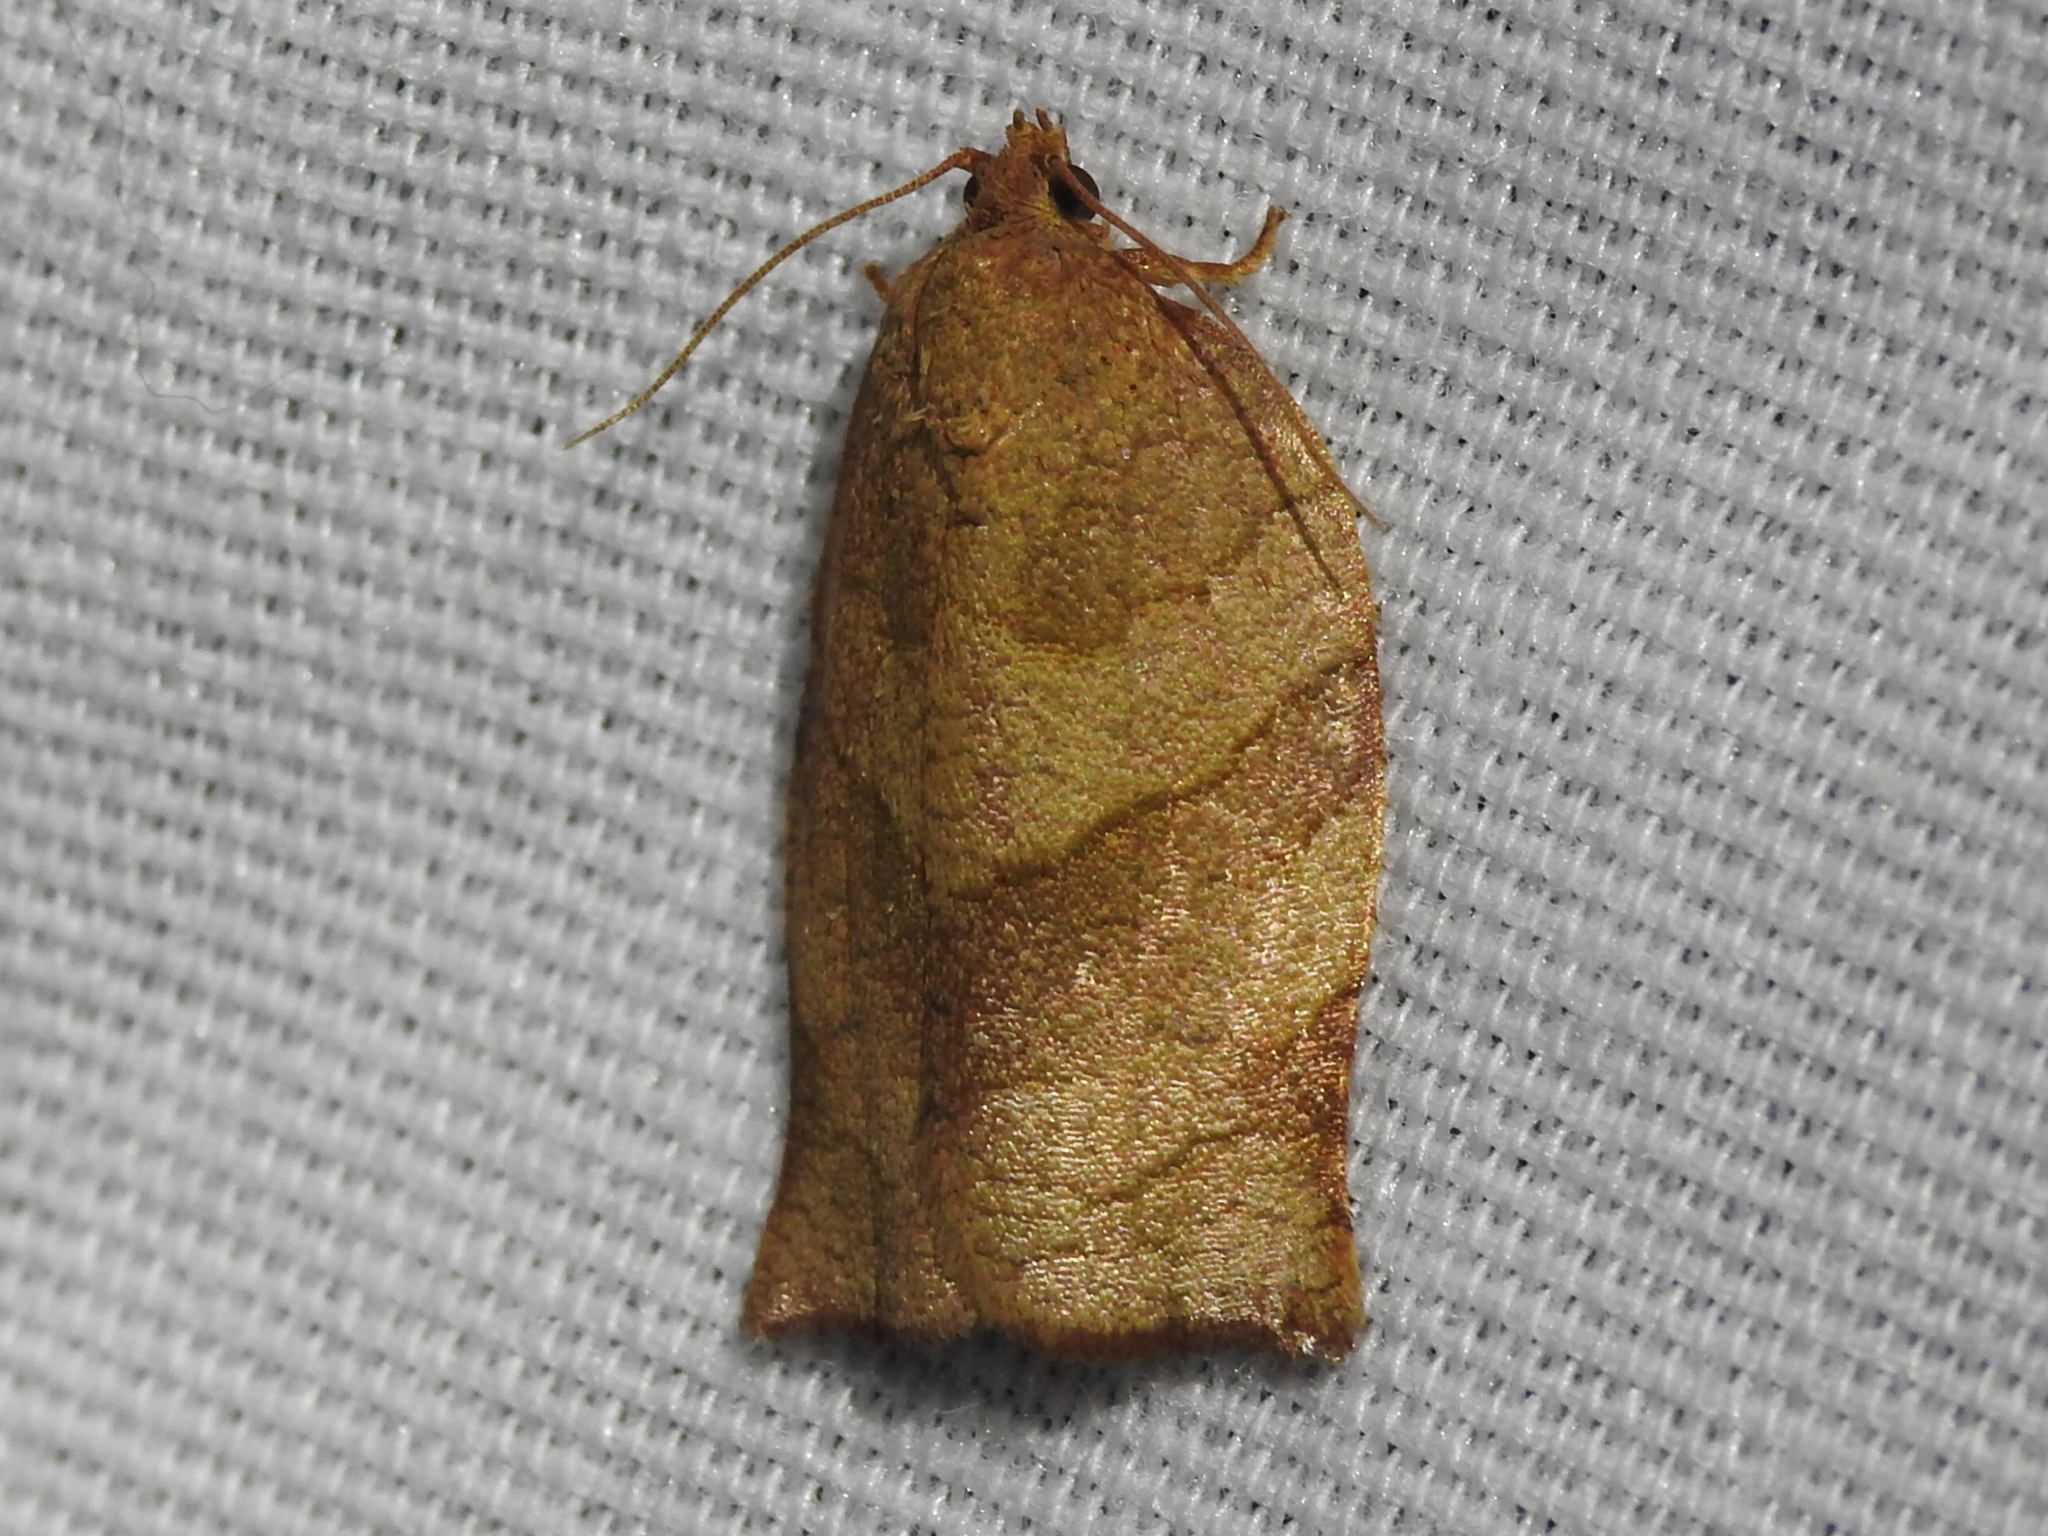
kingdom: Animalia
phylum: Arthropoda
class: Insecta
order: Lepidoptera
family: Tortricidae
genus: Choristoneura
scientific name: Choristoneura rosaceana
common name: Oblique-banded leafroller moth
